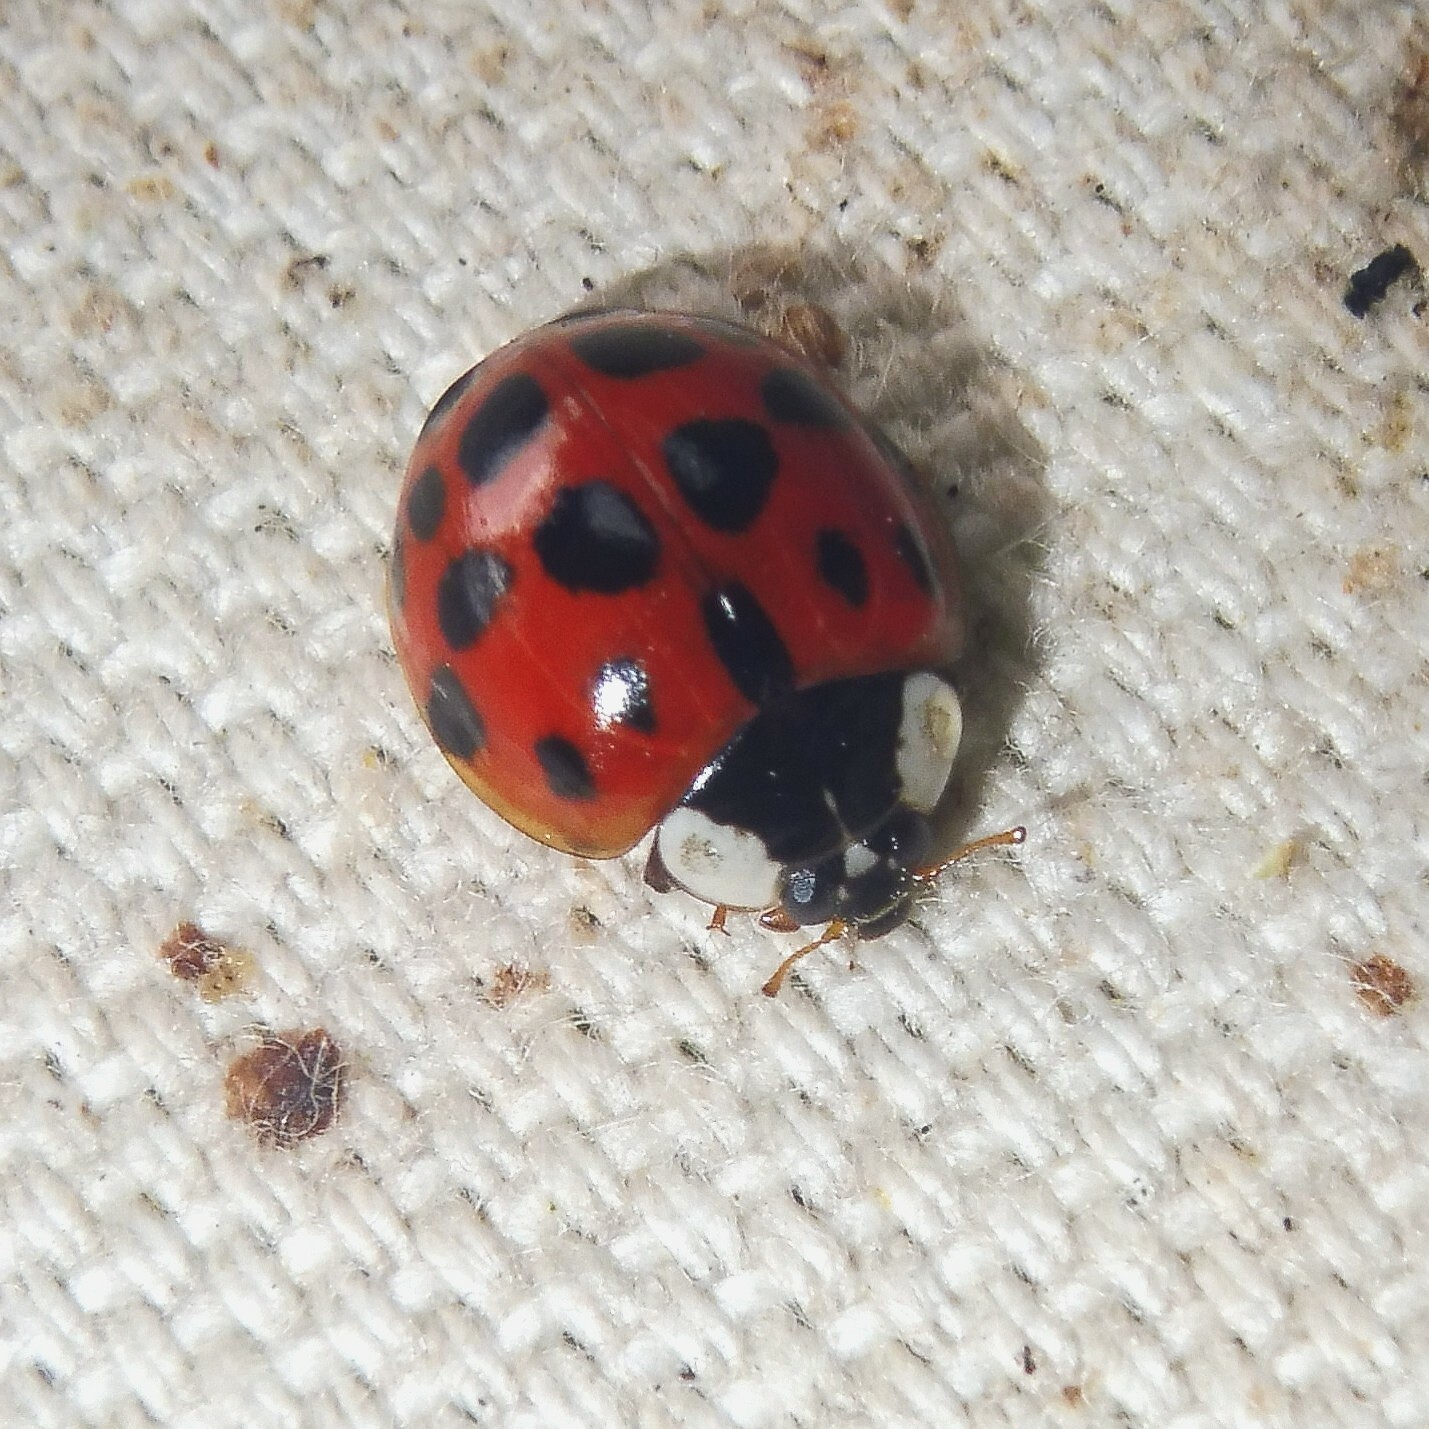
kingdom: Animalia
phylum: Arthropoda
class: Insecta
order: Coleoptera
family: Coccinellidae
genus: Harmonia
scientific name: Harmonia axyridis
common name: Harlequin ladybird
